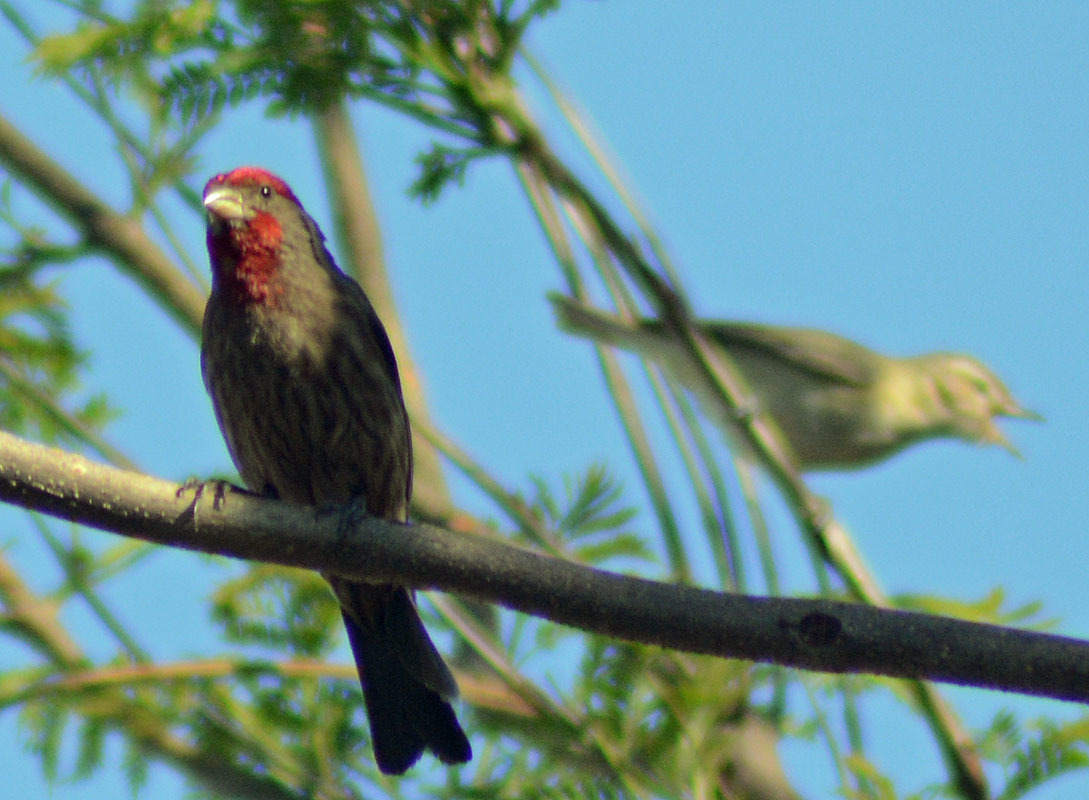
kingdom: Animalia
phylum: Chordata
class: Aves
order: Passeriformes
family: Fringillidae
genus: Haemorhous
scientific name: Haemorhous mexicanus
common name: House finch
